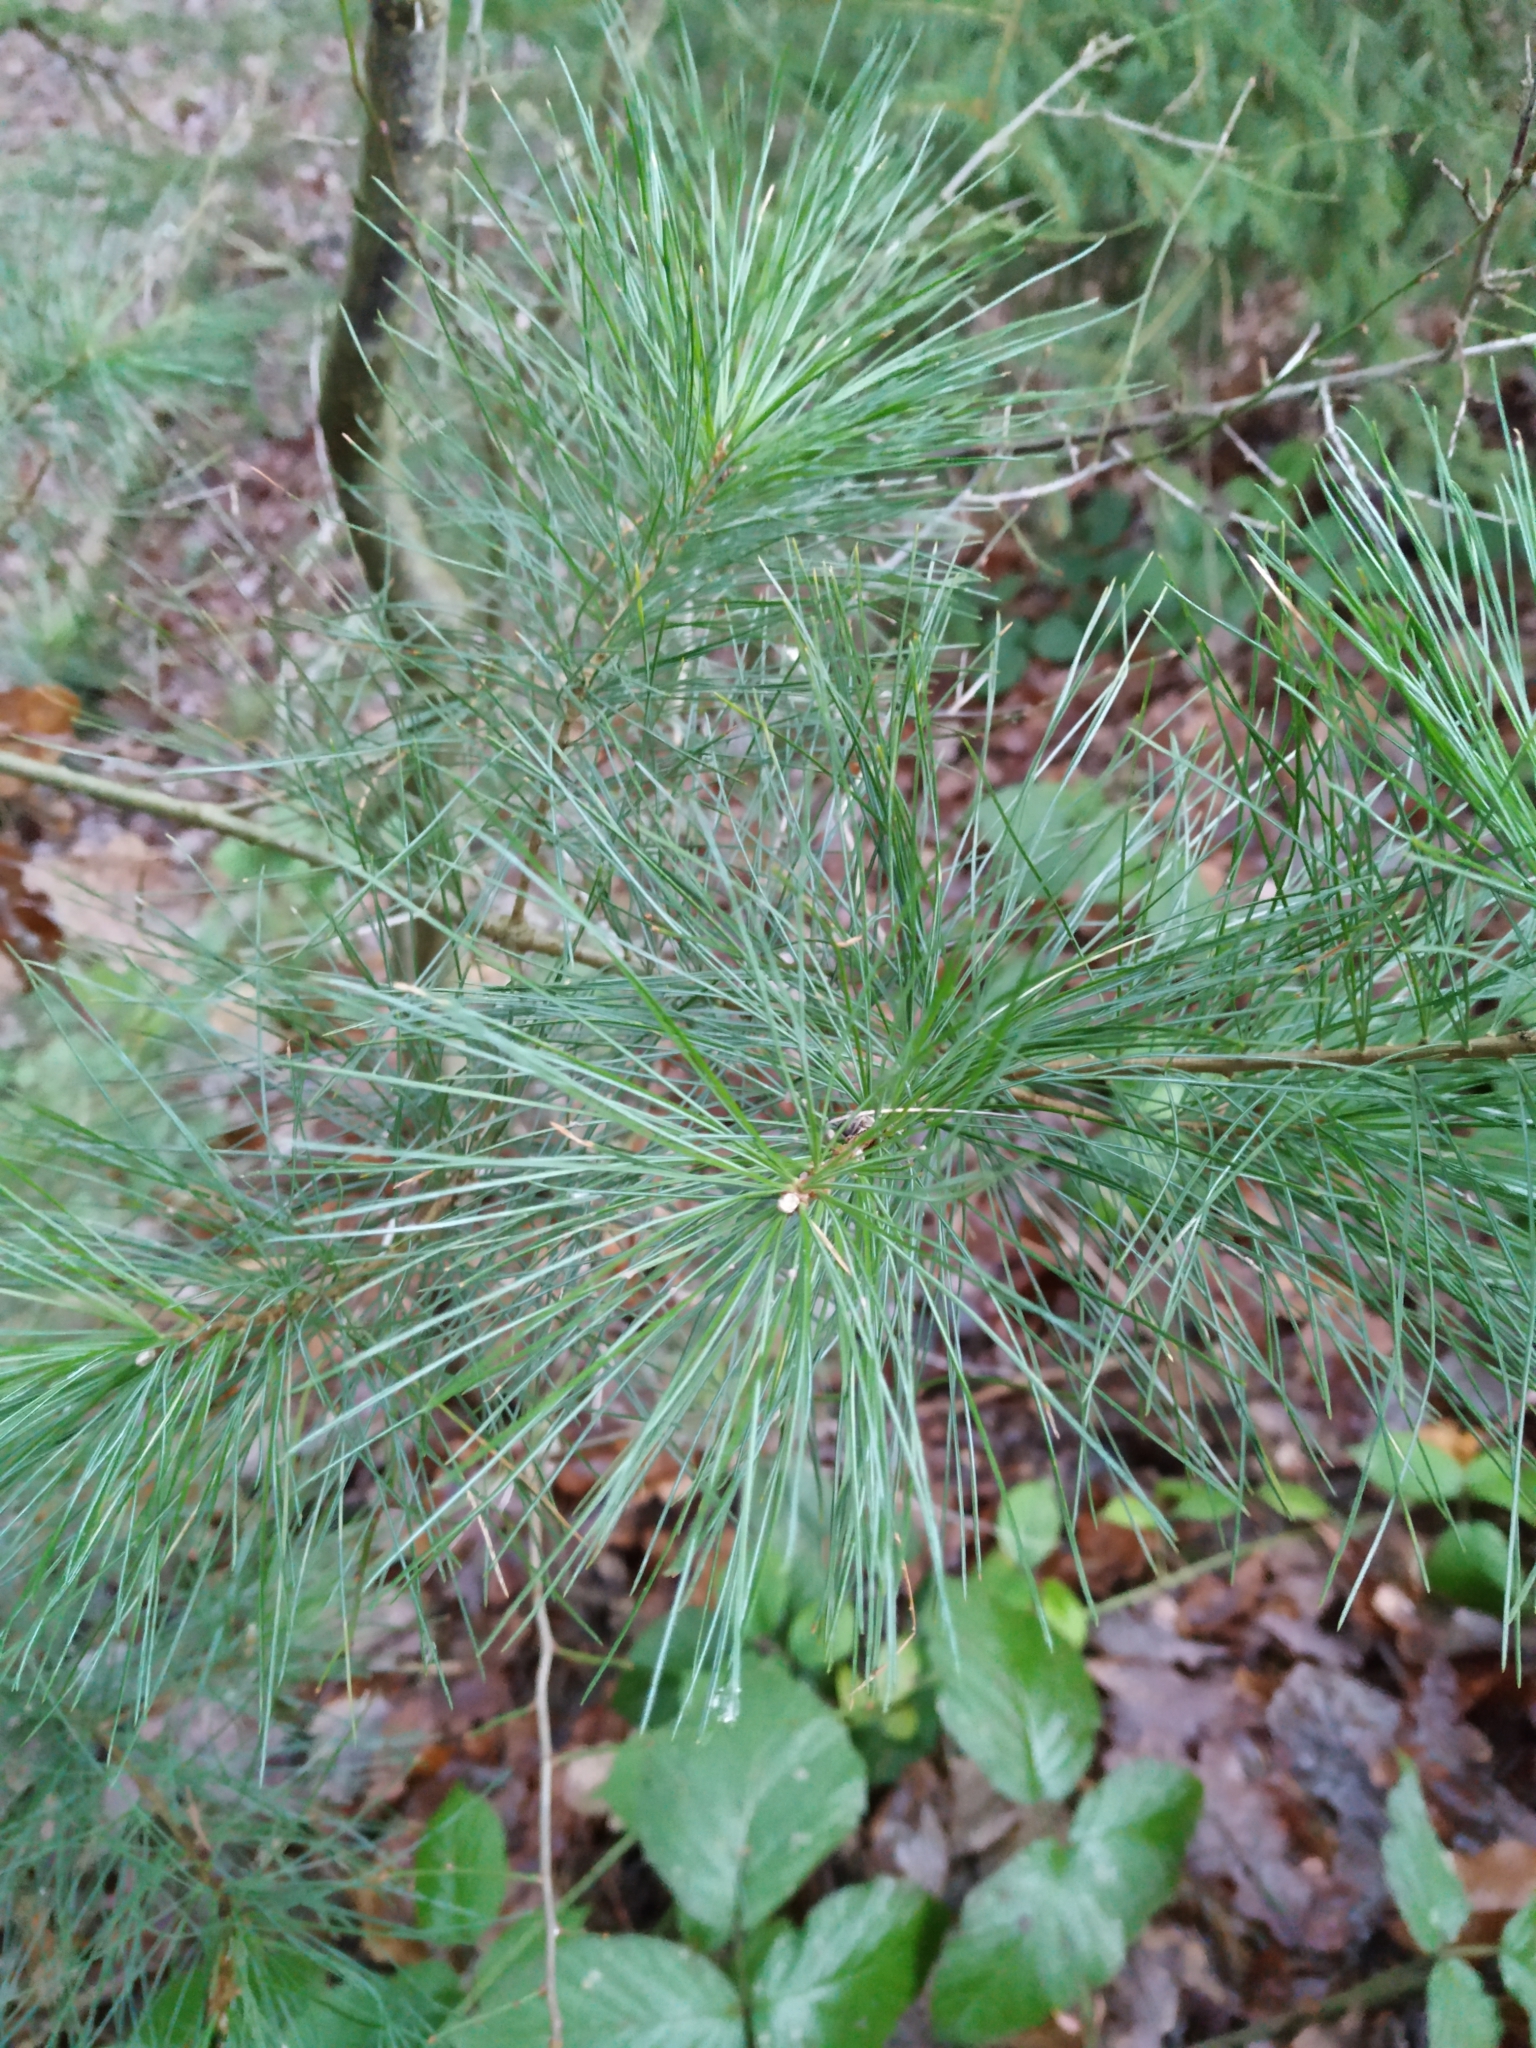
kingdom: Plantae
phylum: Tracheophyta
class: Pinopsida
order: Pinales
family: Pinaceae
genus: Pinus
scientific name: Pinus strobus
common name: Weymouth pine
